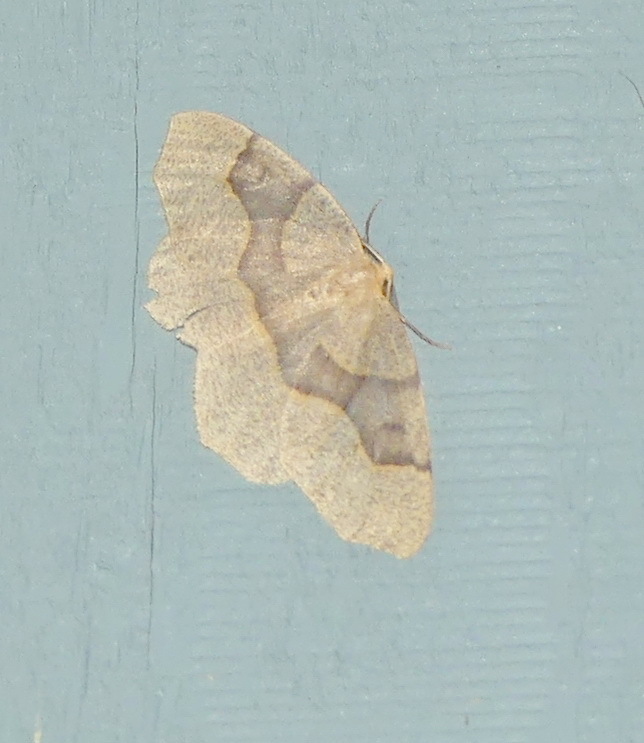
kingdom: Animalia
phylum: Arthropoda
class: Insecta
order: Lepidoptera
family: Geometridae
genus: Lambdina
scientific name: Lambdina fiscellaria
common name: Hemlock looper
